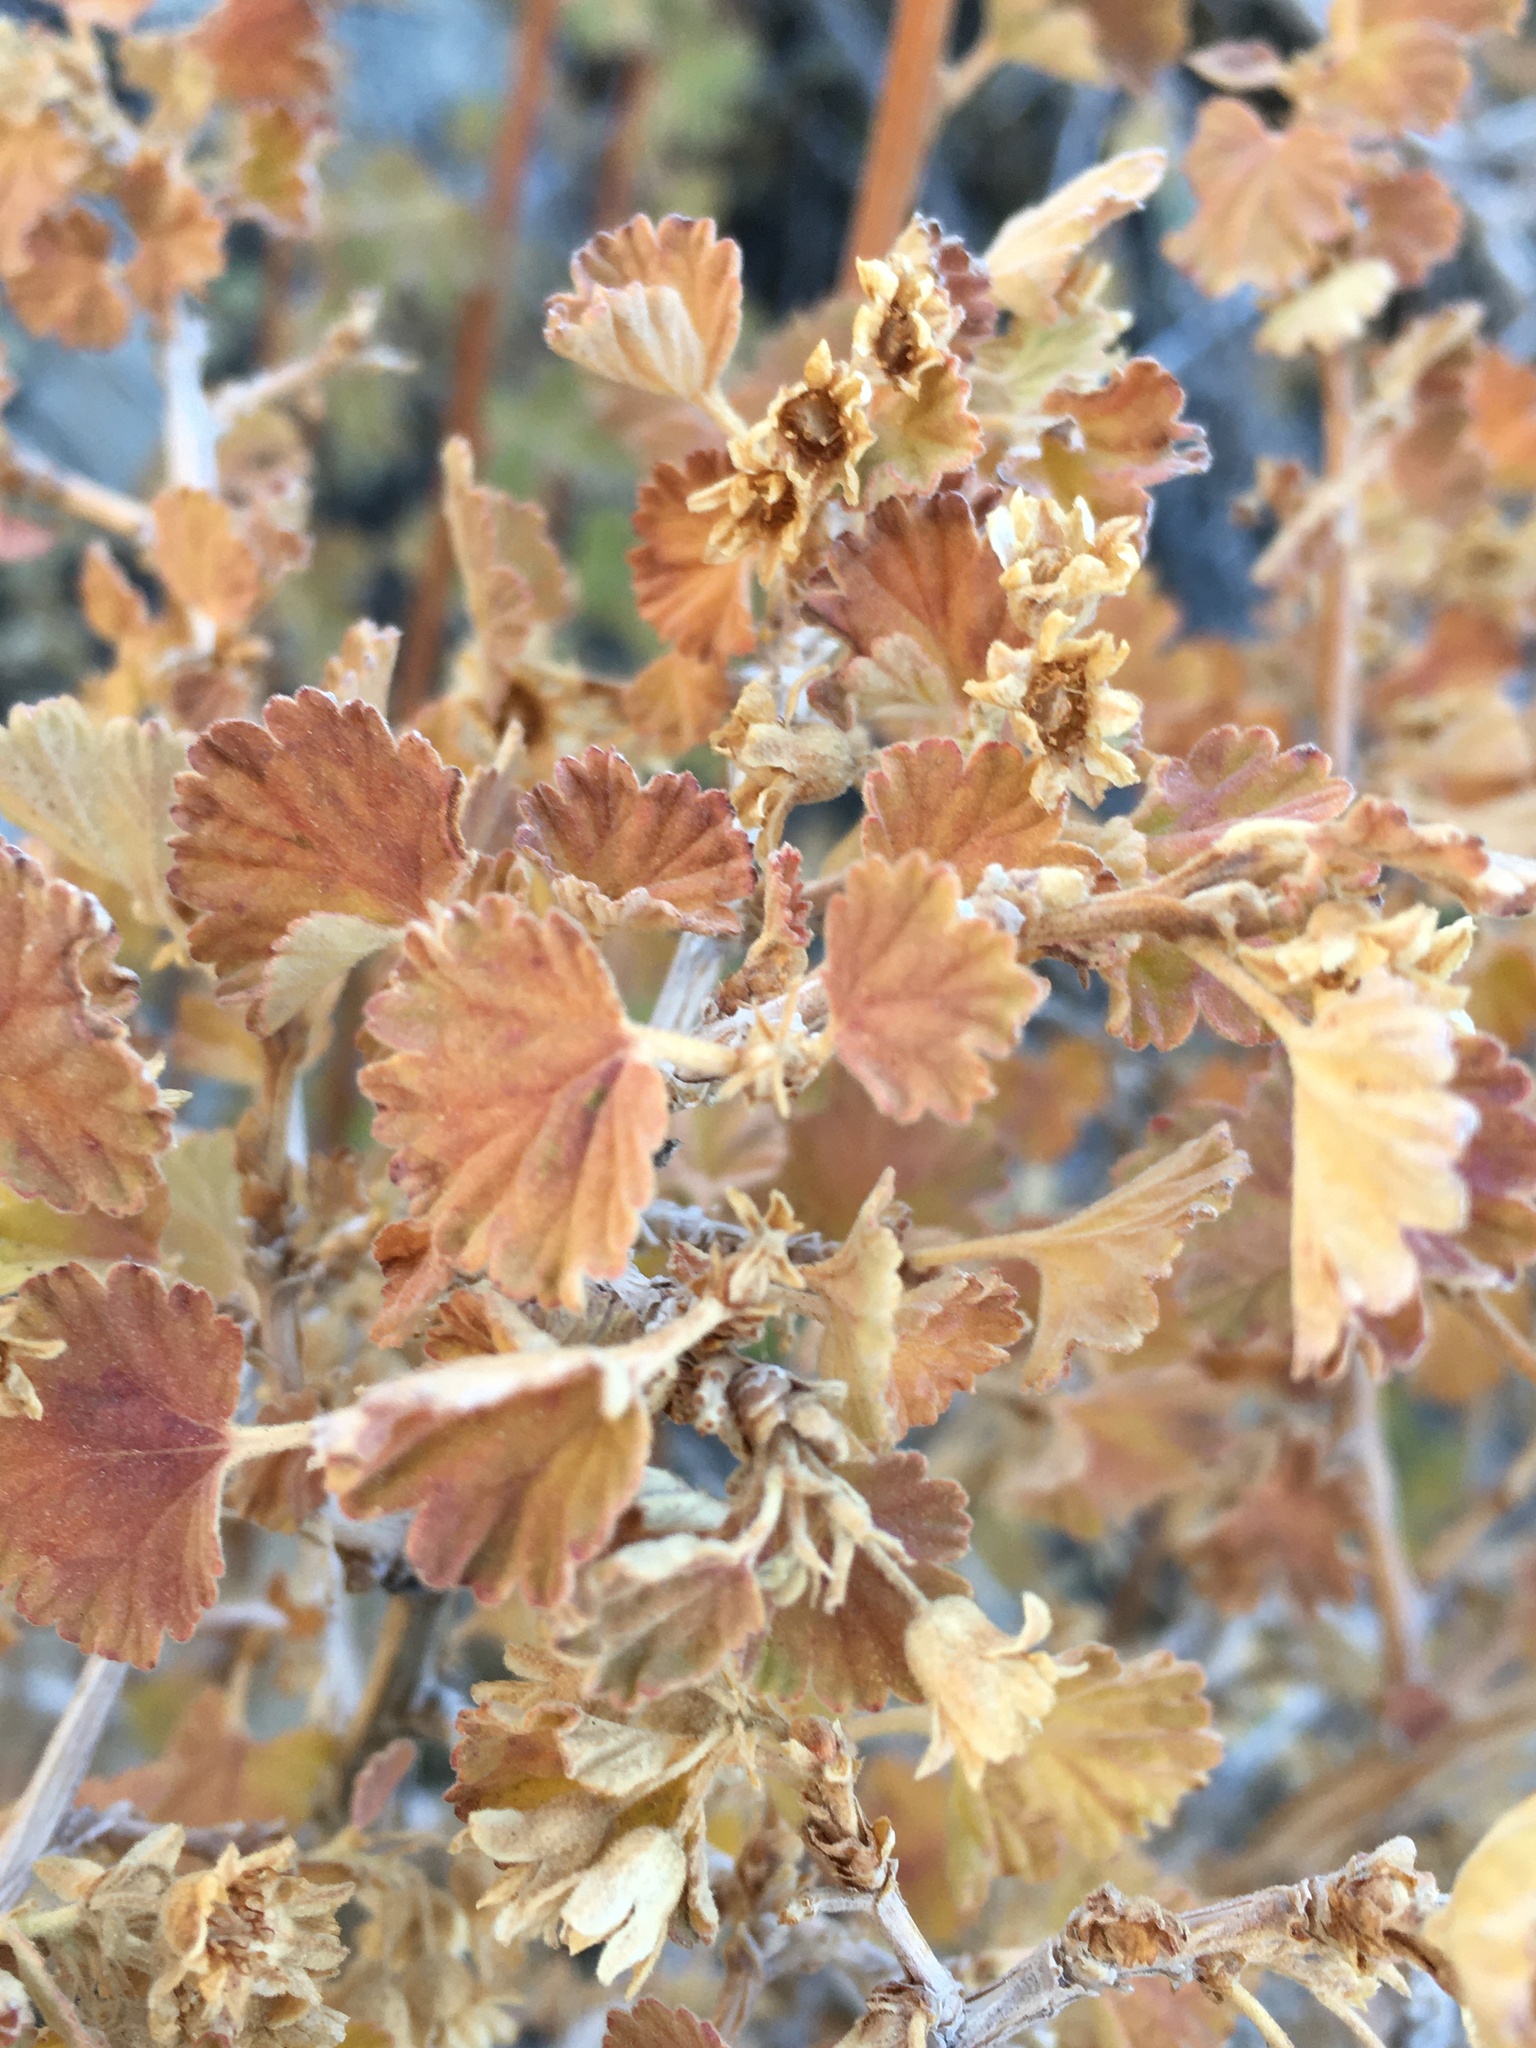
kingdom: Plantae
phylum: Tracheophyta
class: Magnoliopsida
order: Rosales
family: Rosaceae
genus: Physocarpus
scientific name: Physocarpus alternans
